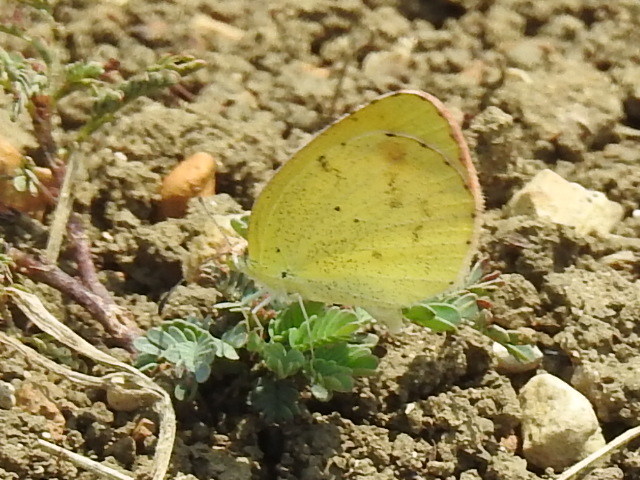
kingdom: Animalia
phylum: Arthropoda
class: Insecta
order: Lepidoptera
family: Pieridae
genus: Pyrisitia
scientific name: Pyrisitia lisa
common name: Little yellow
